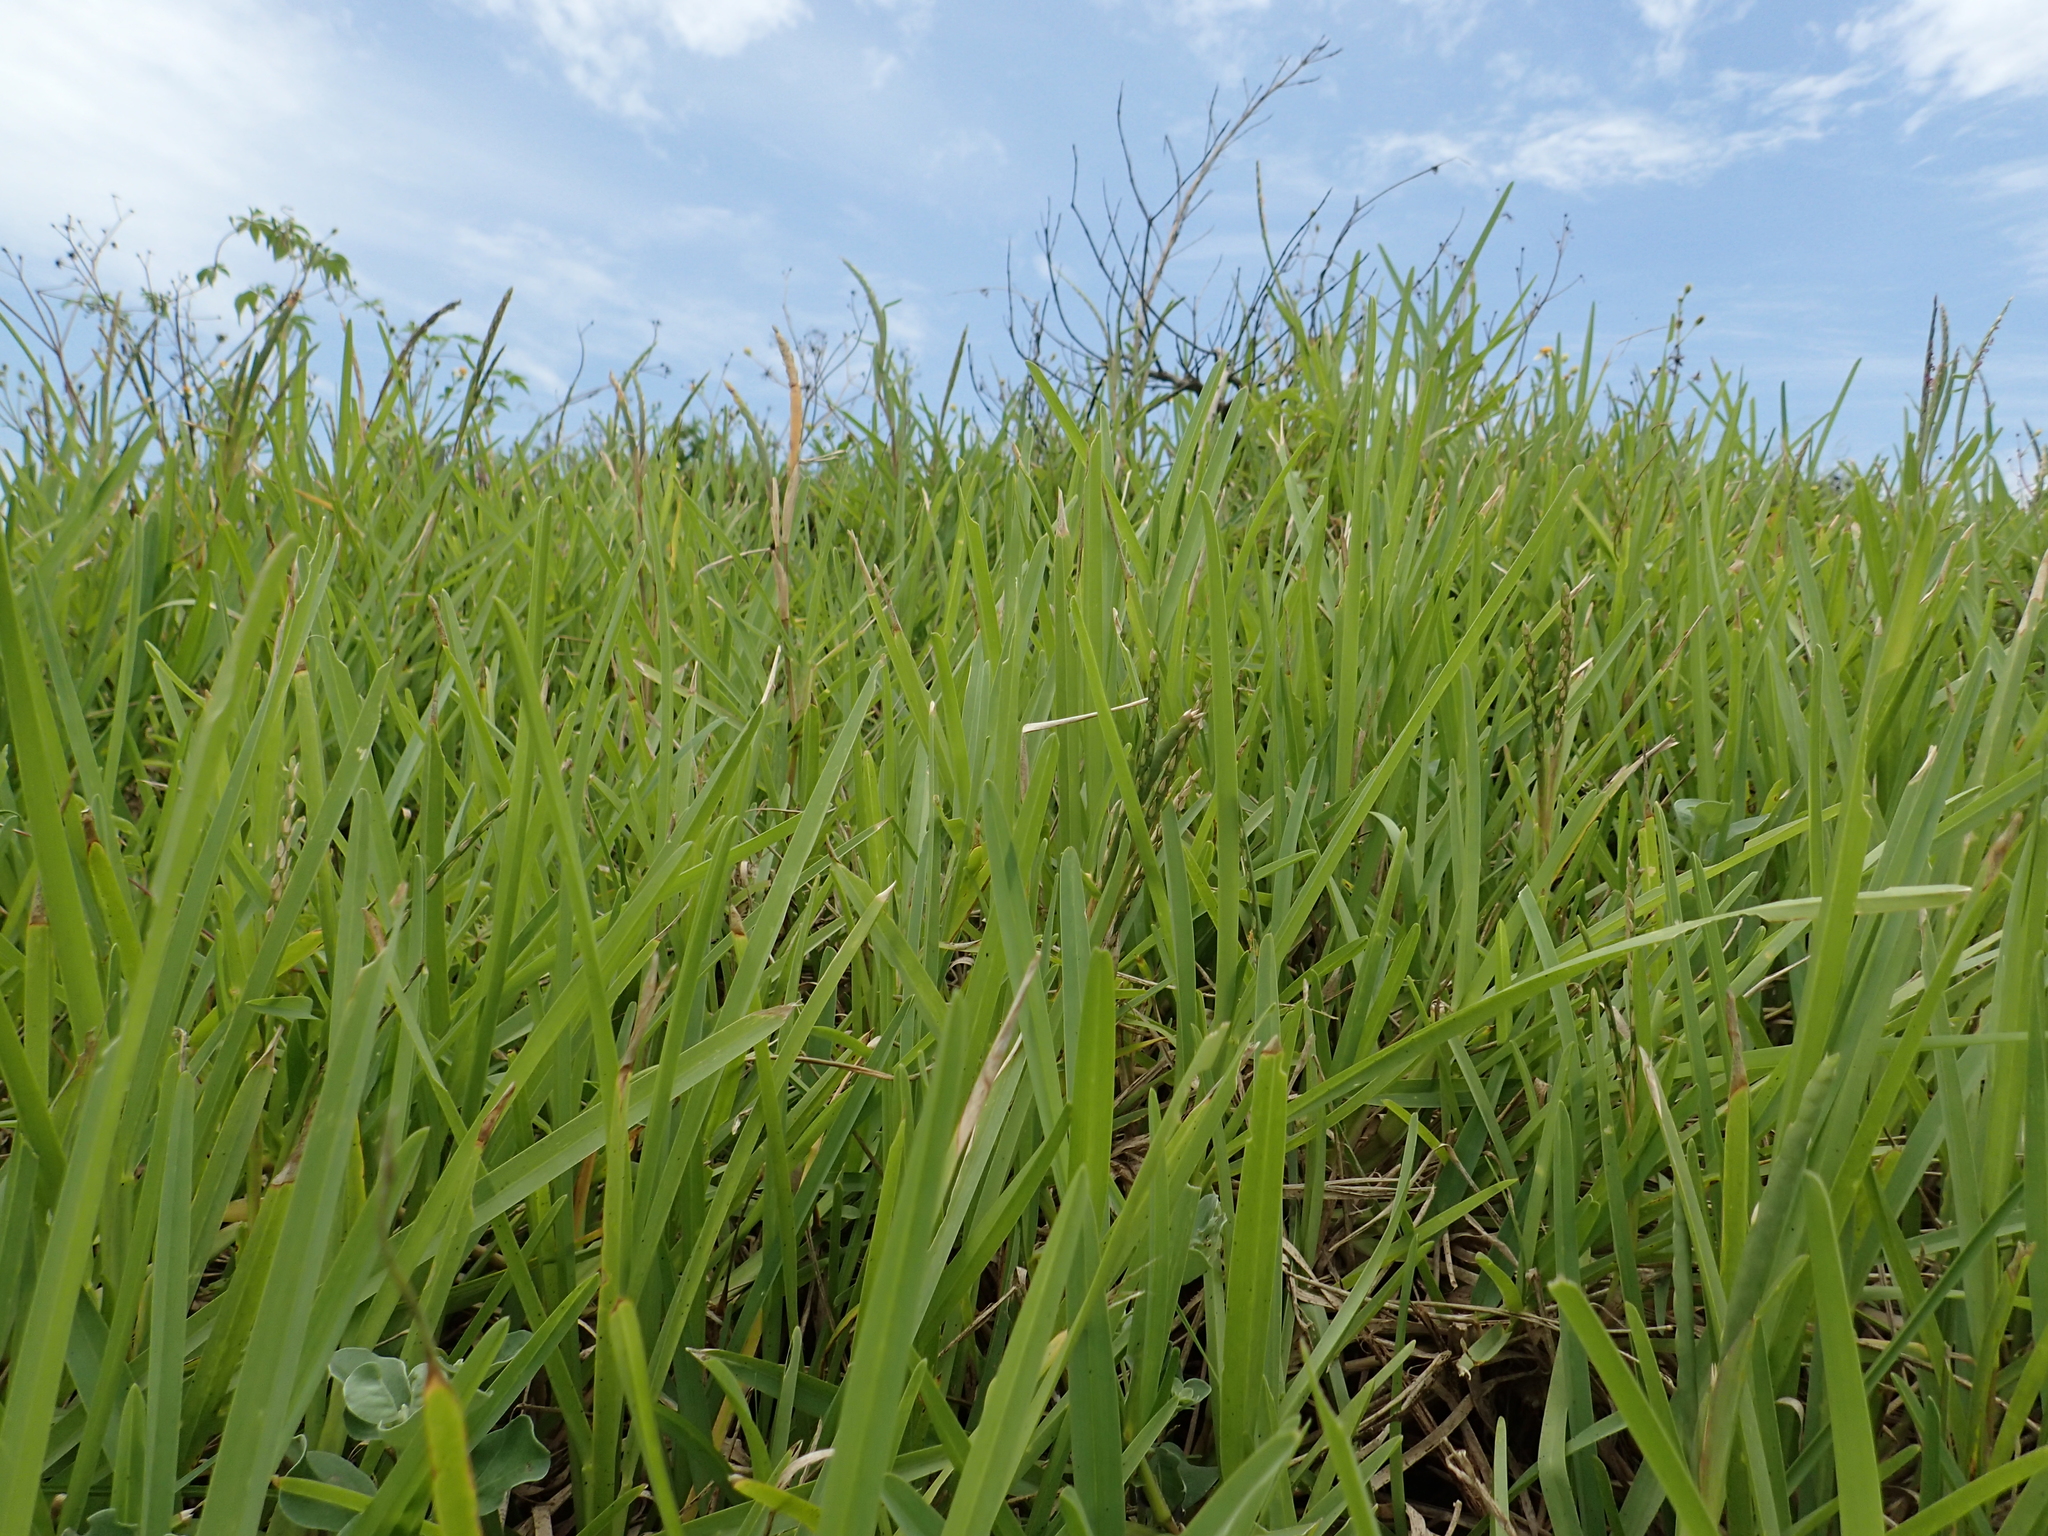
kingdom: Plantae
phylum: Tracheophyta
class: Liliopsida
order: Poales
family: Poaceae
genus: Stenotaphrum
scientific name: Stenotaphrum secundatum
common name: St. augustine grass
